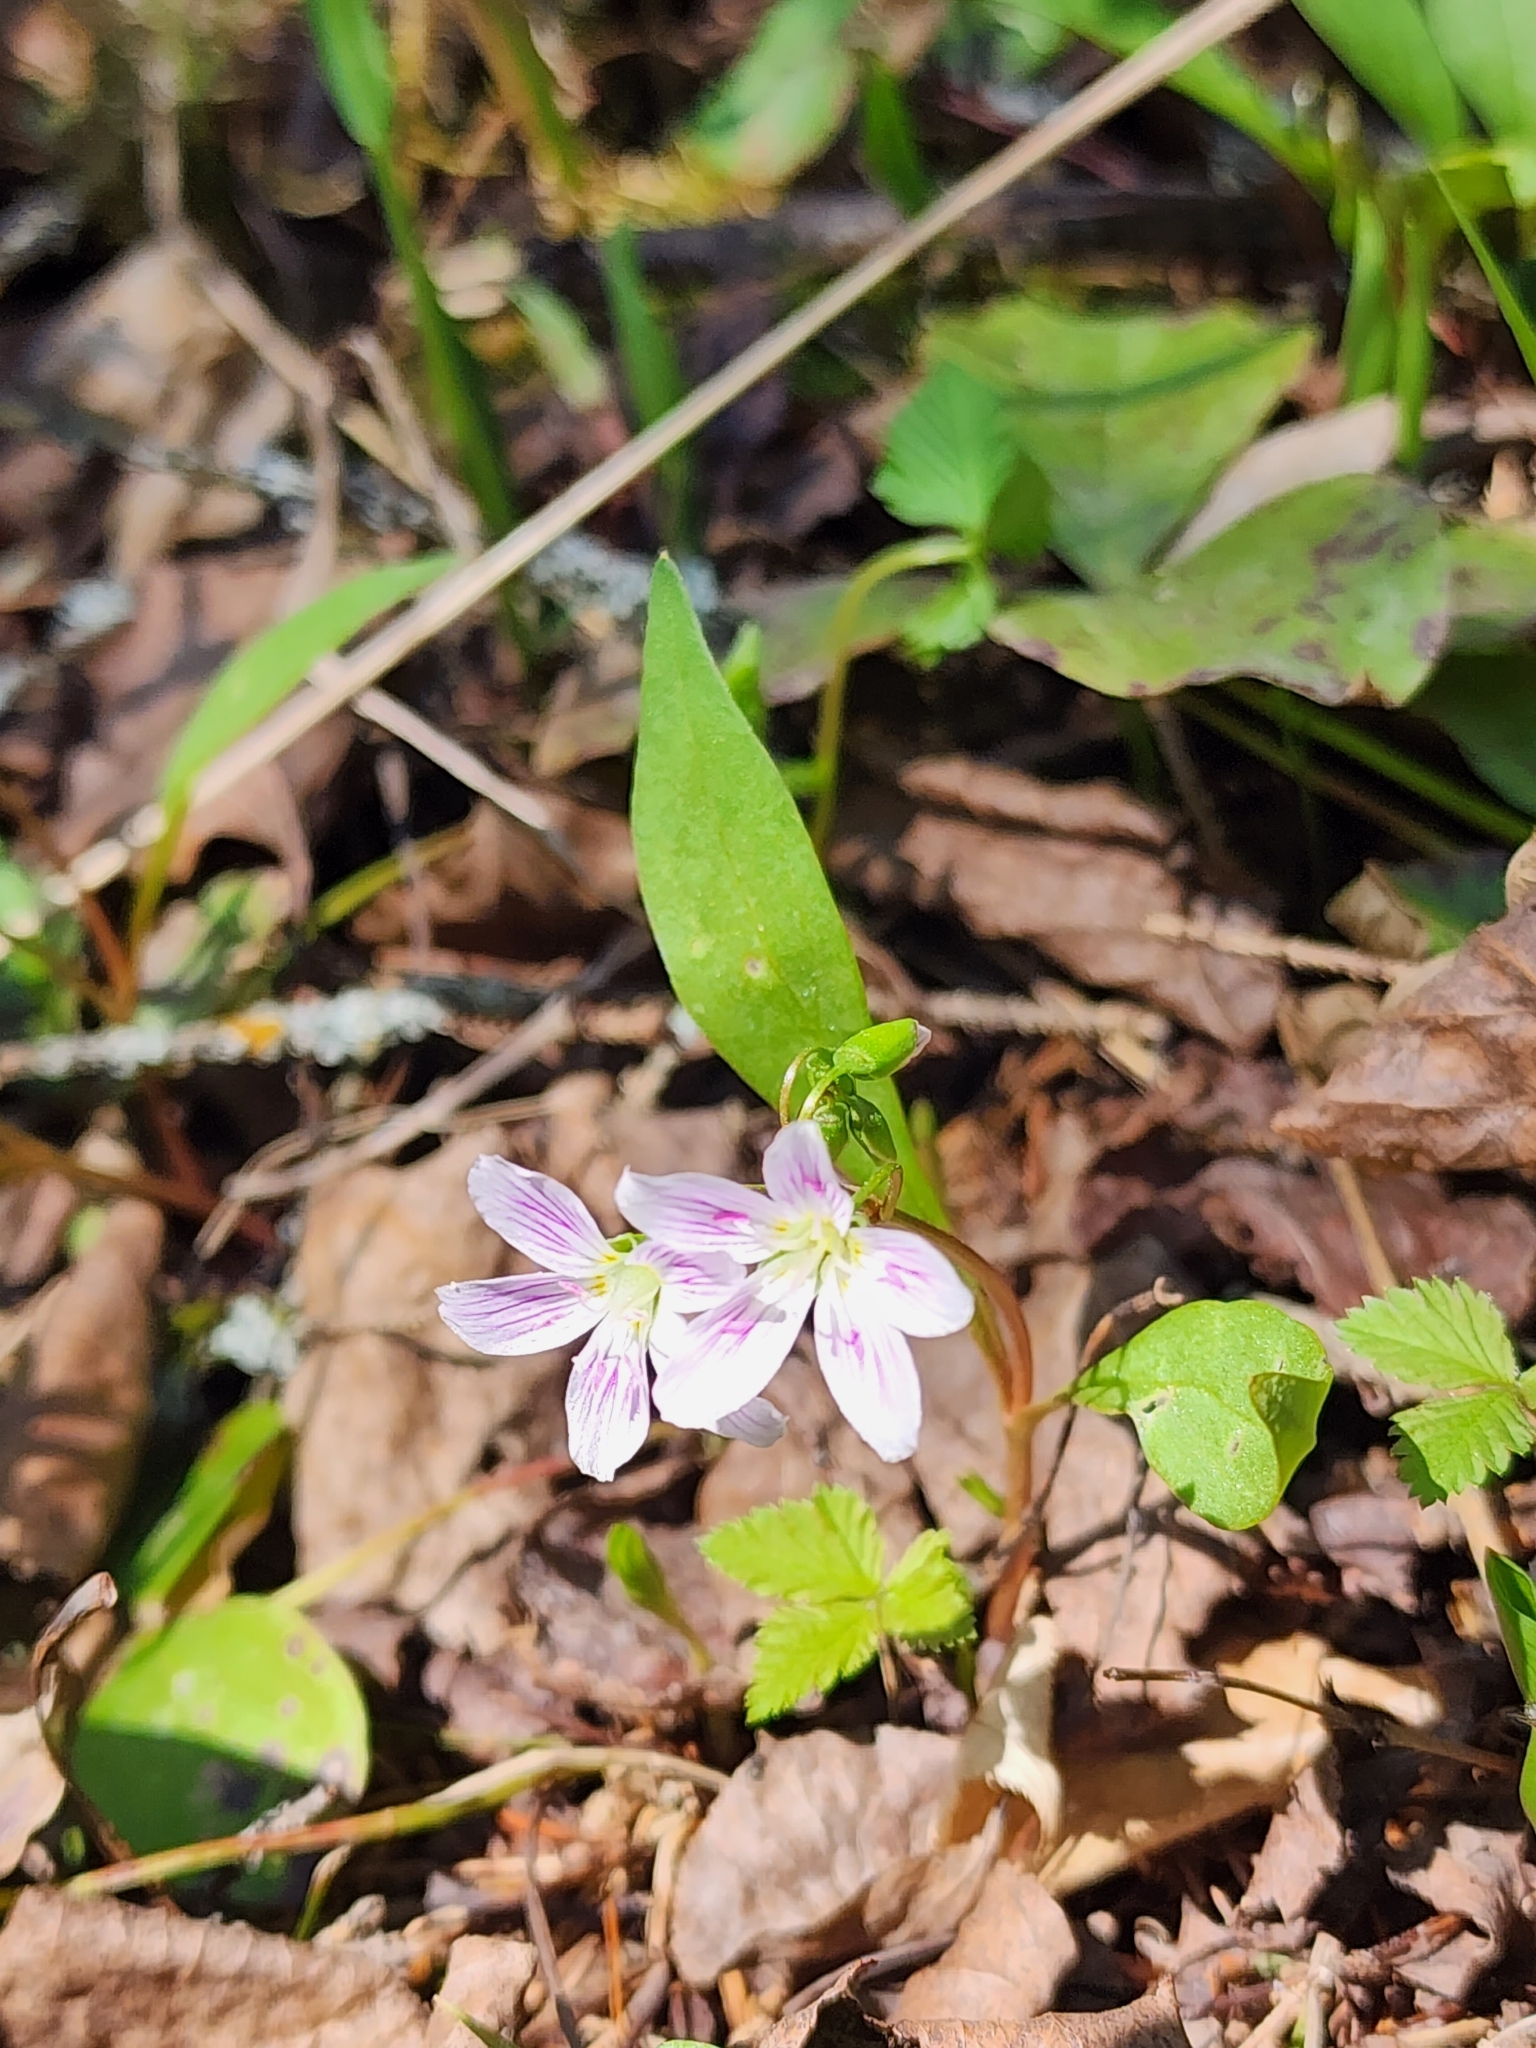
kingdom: Plantae
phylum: Tracheophyta
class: Magnoliopsida
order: Caryophyllales
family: Montiaceae
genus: Claytonia
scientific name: Claytonia caroliniana
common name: Carolina spring beauty
